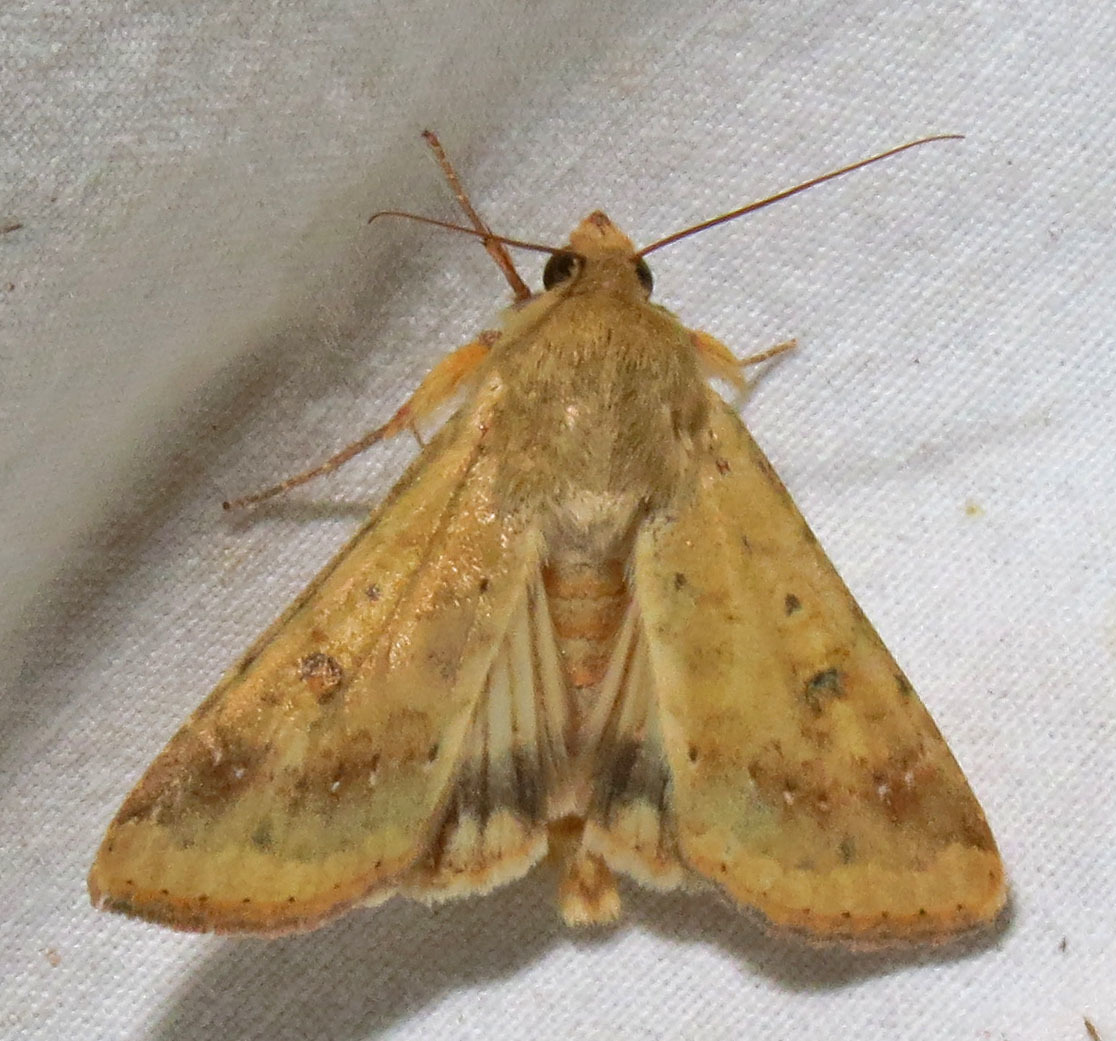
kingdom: Animalia
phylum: Arthropoda
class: Insecta
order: Lepidoptera
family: Noctuidae
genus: Helicoverpa
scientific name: Helicoverpa zea
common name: Bollworm
